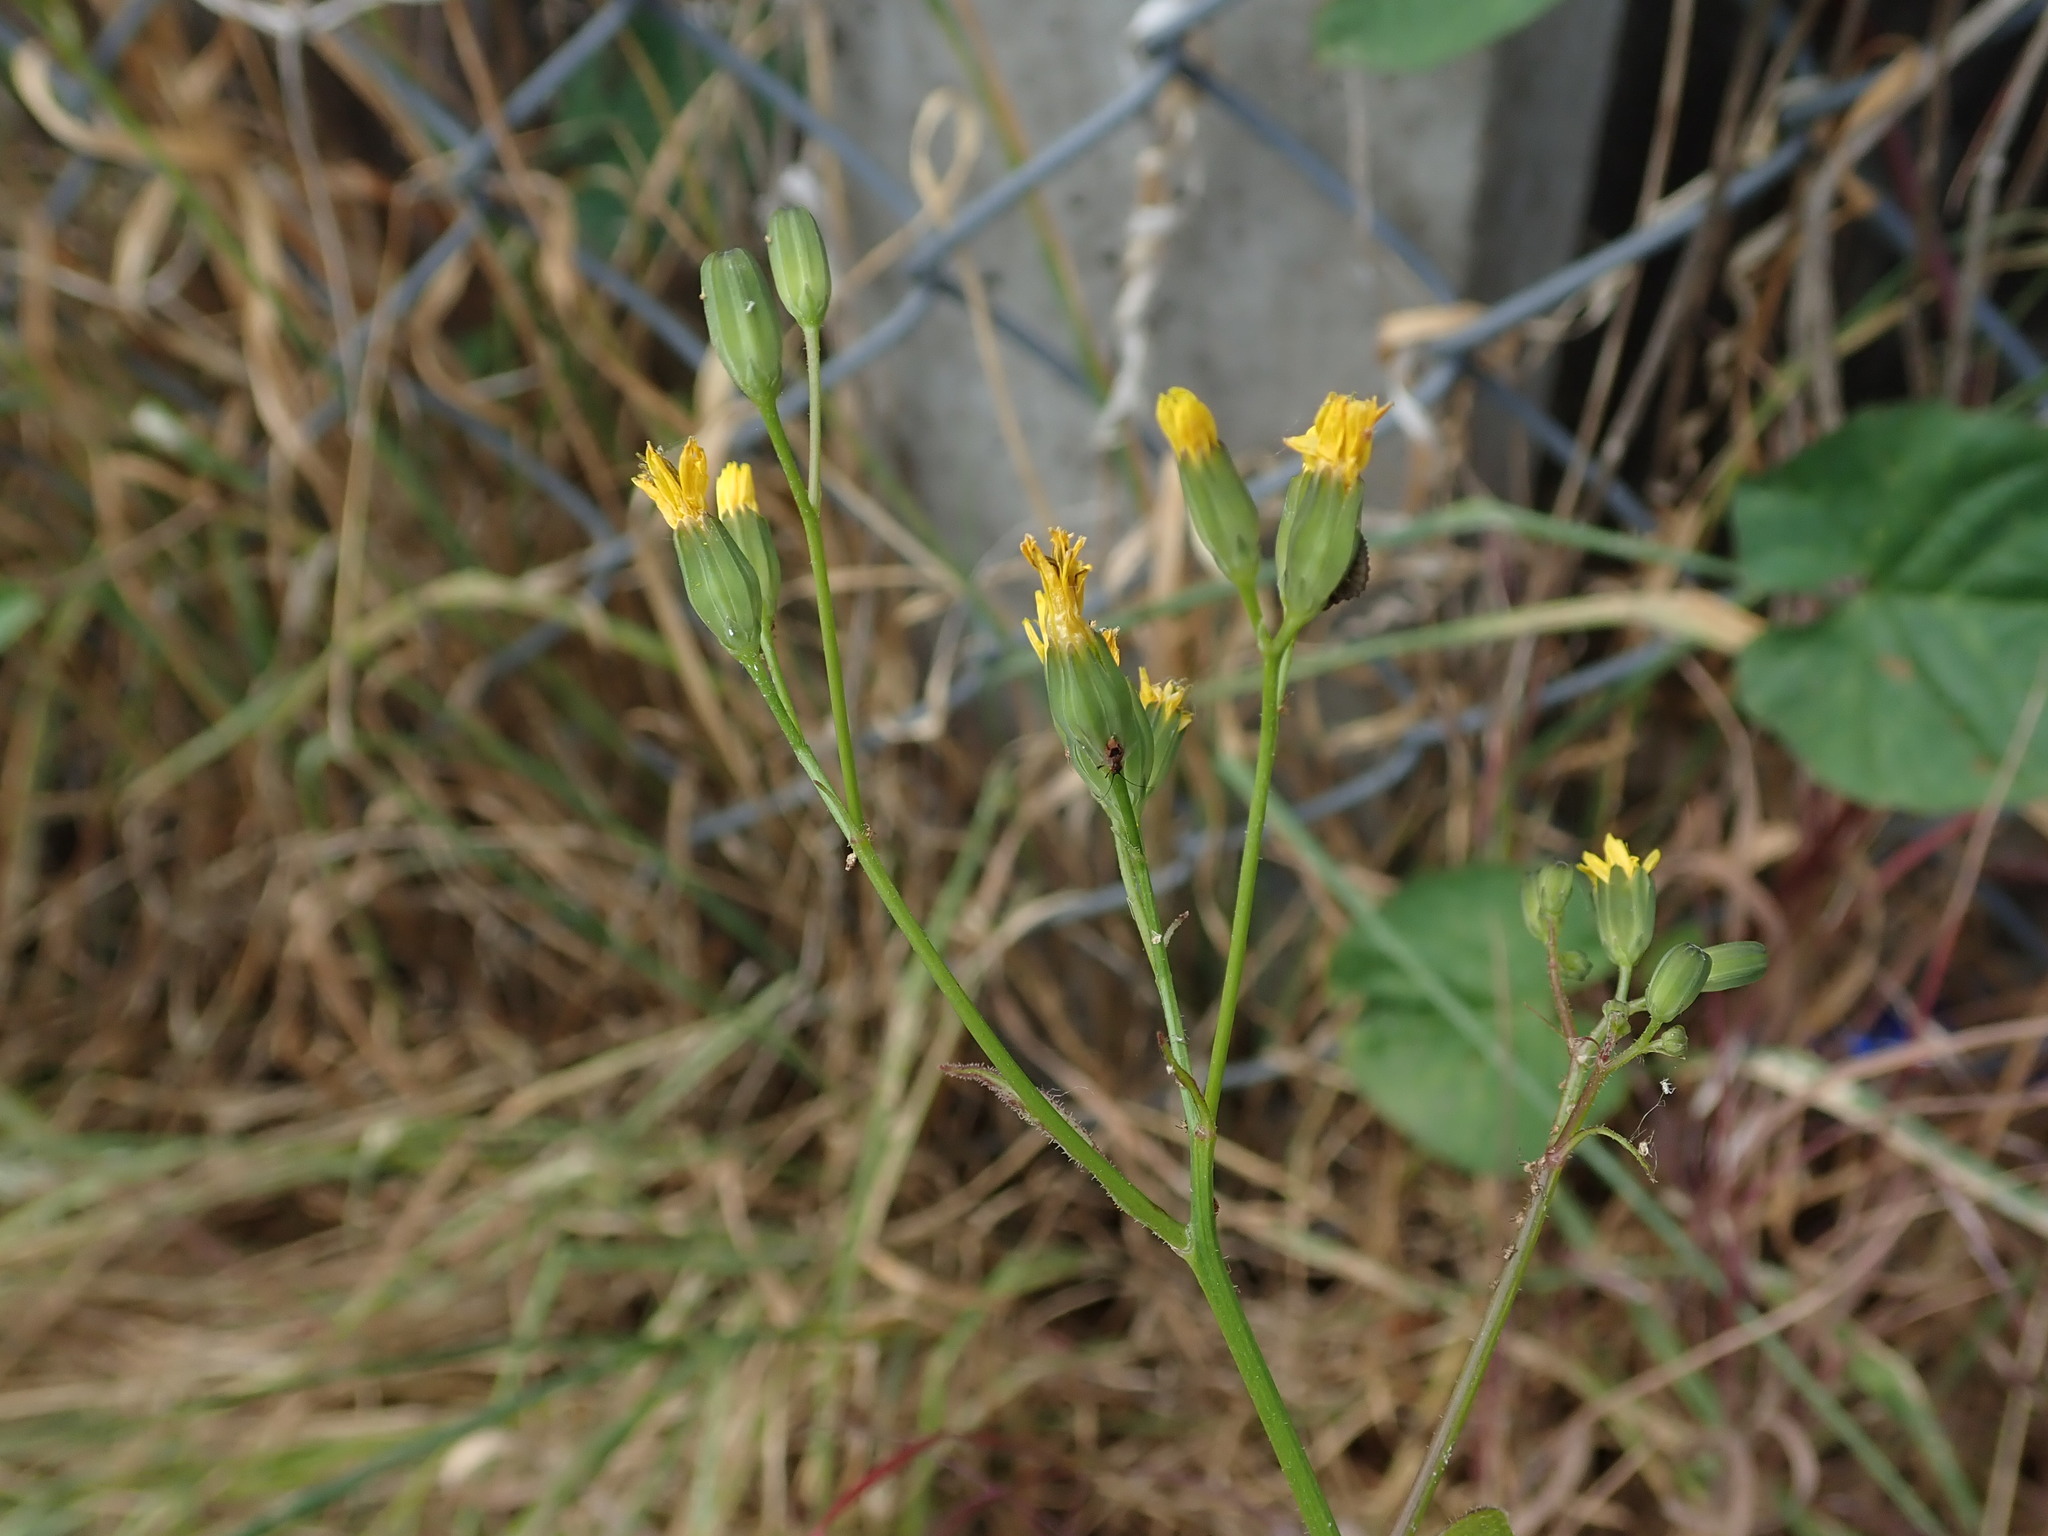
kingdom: Plantae
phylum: Tracheophyta
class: Magnoliopsida
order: Asterales
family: Asteraceae
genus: Lapsana
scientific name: Lapsana communis
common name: Nipplewort
